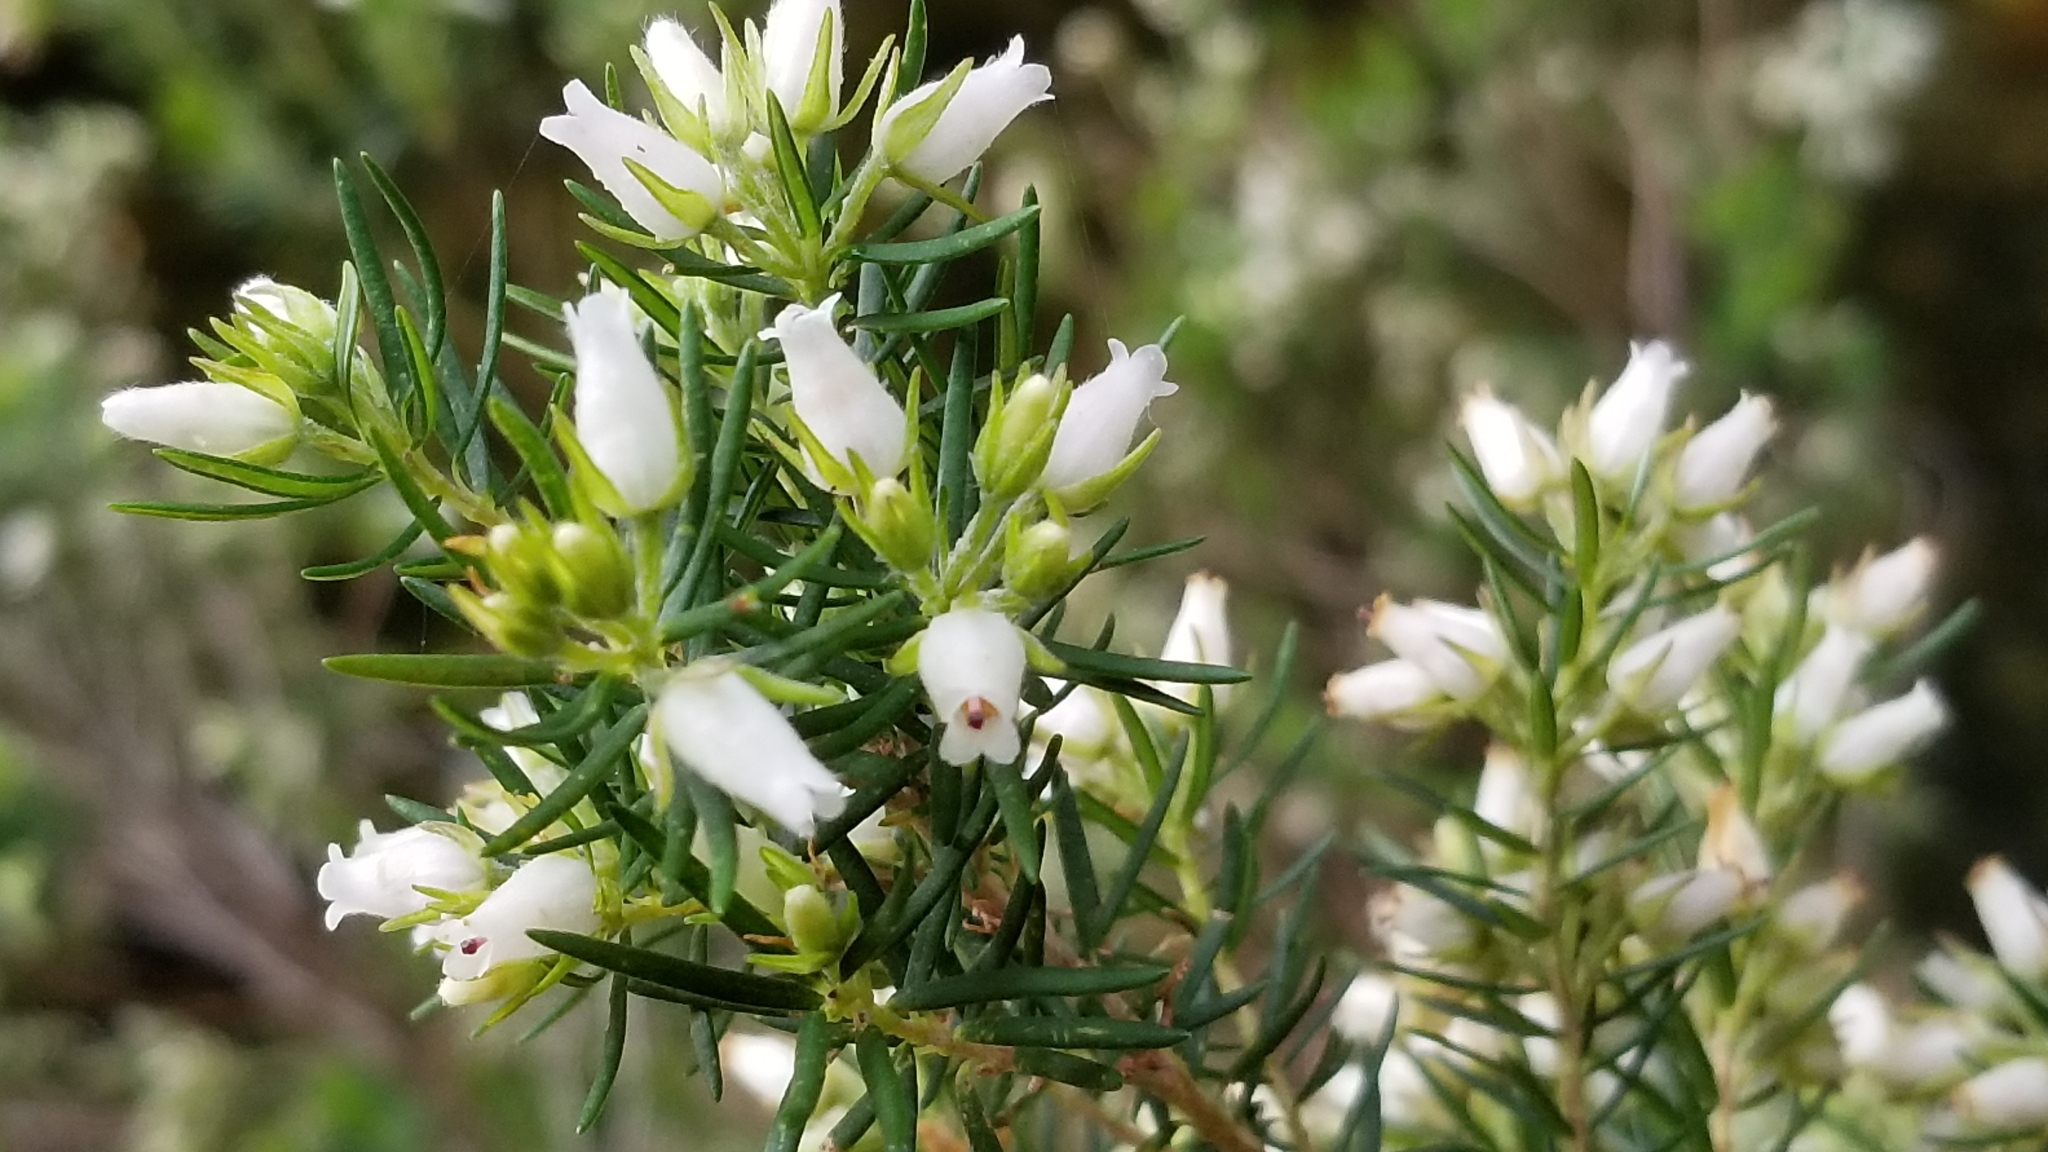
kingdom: Plantae
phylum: Tracheophyta
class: Magnoliopsida
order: Ericales
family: Ericaceae
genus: Erica
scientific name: Erica caffra
